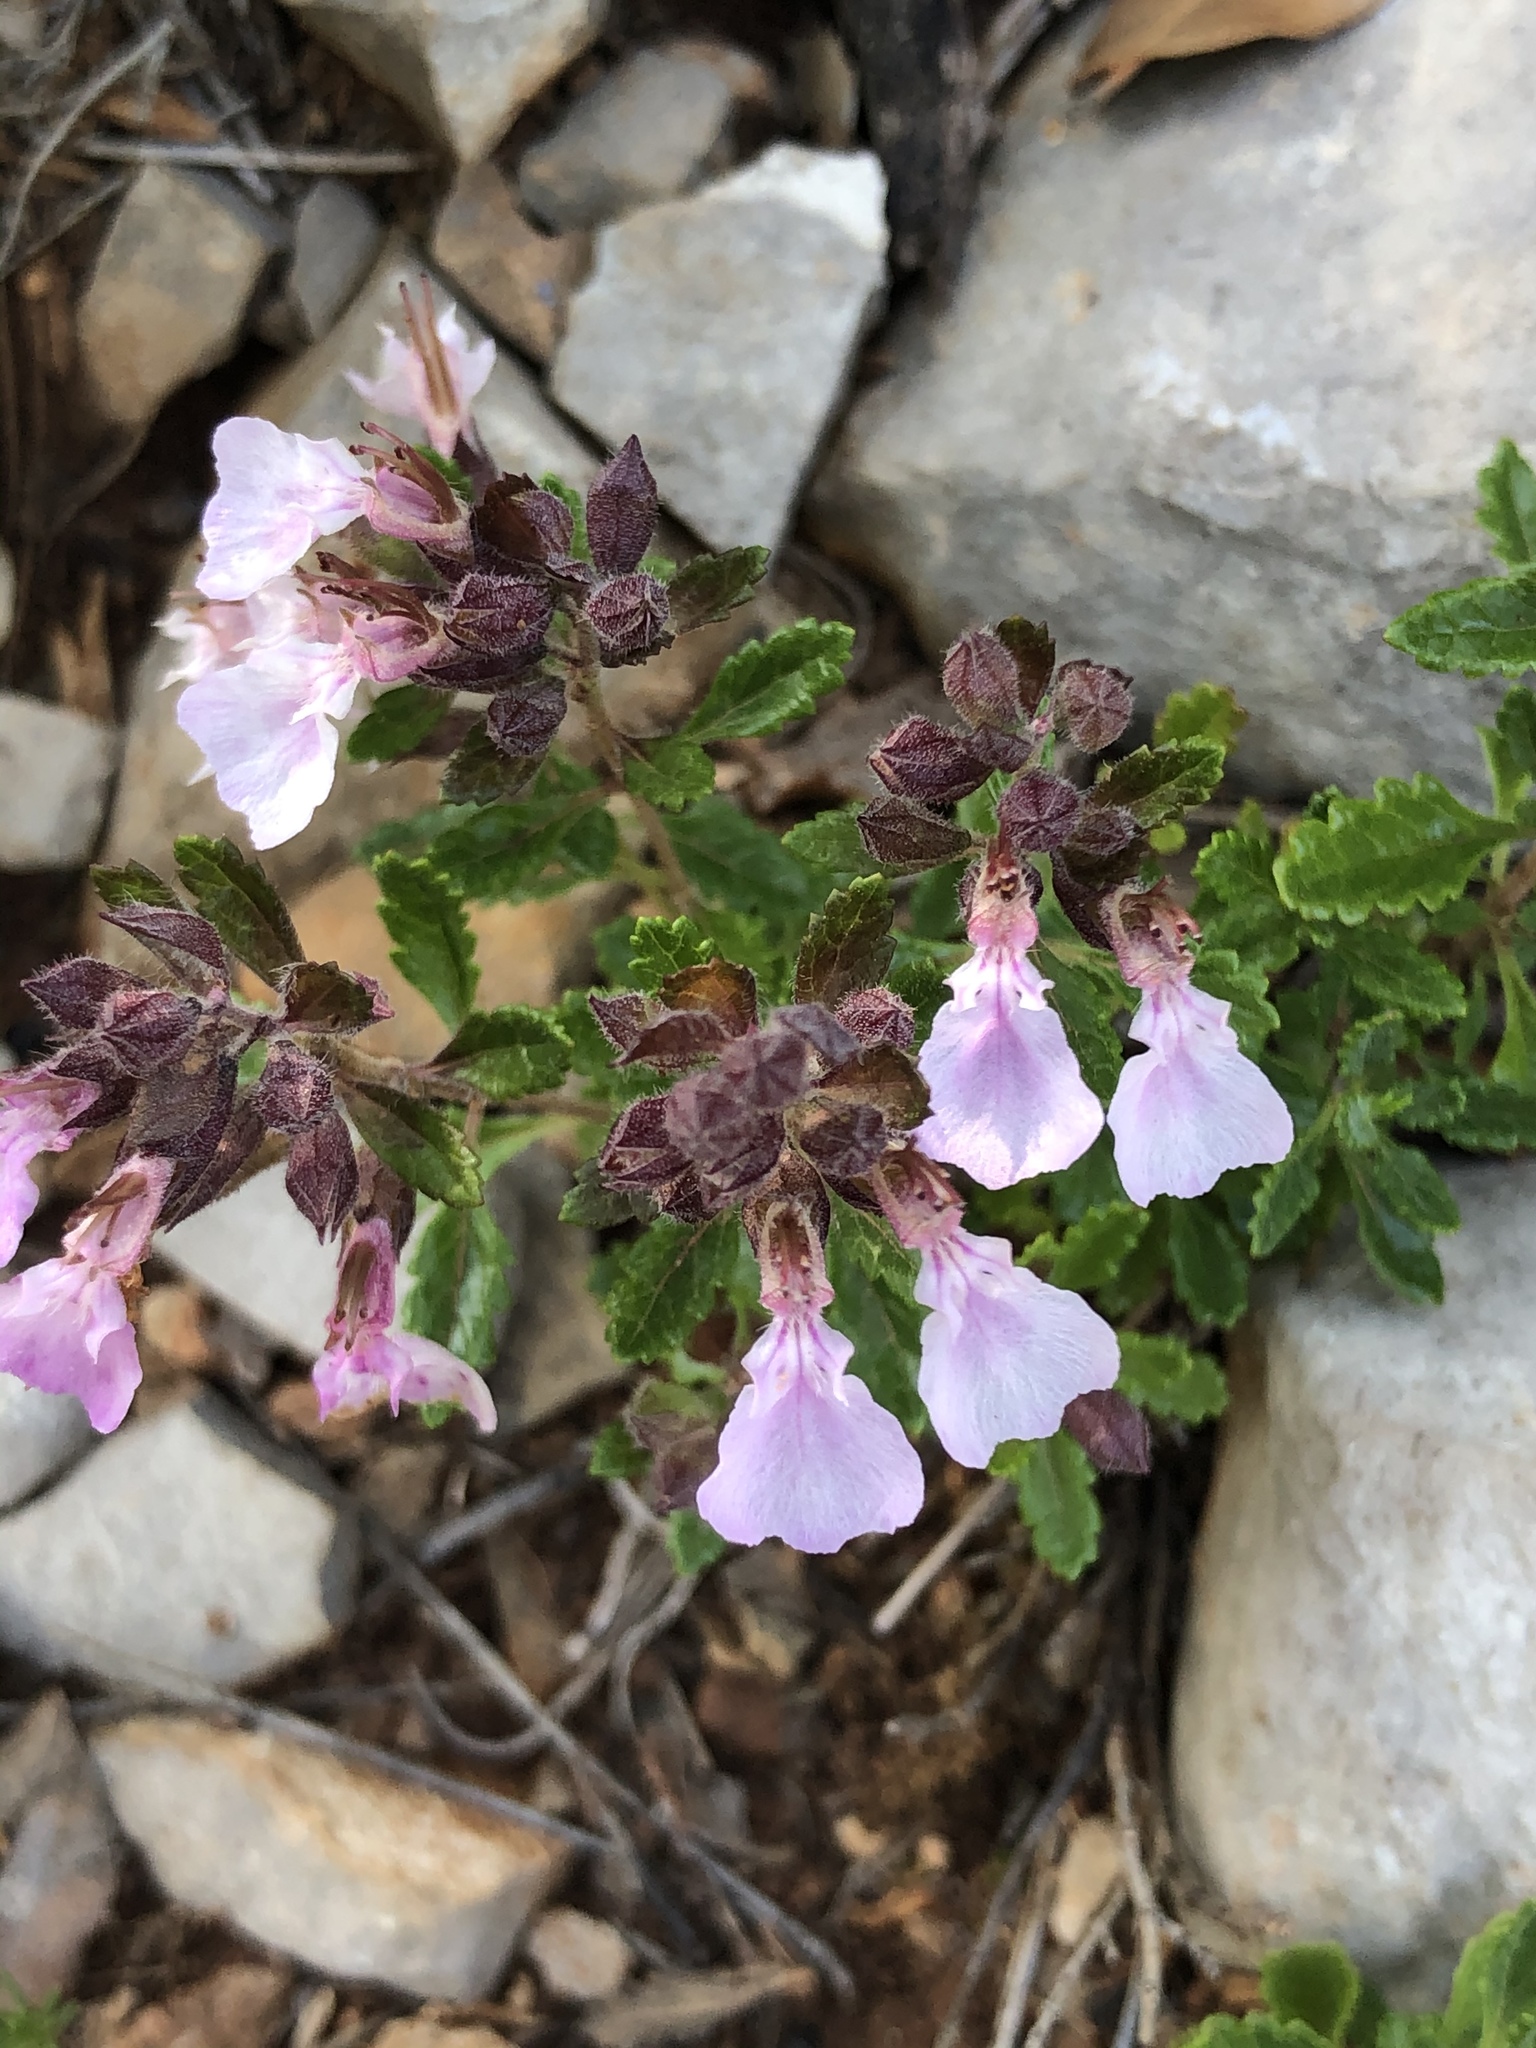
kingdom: Plantae
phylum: Tracheophyta
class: Magnoliopsida
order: Lamiales
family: Lamiaceae
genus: Teucrium
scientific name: Teucrium chamaedrys
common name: Wall germander
